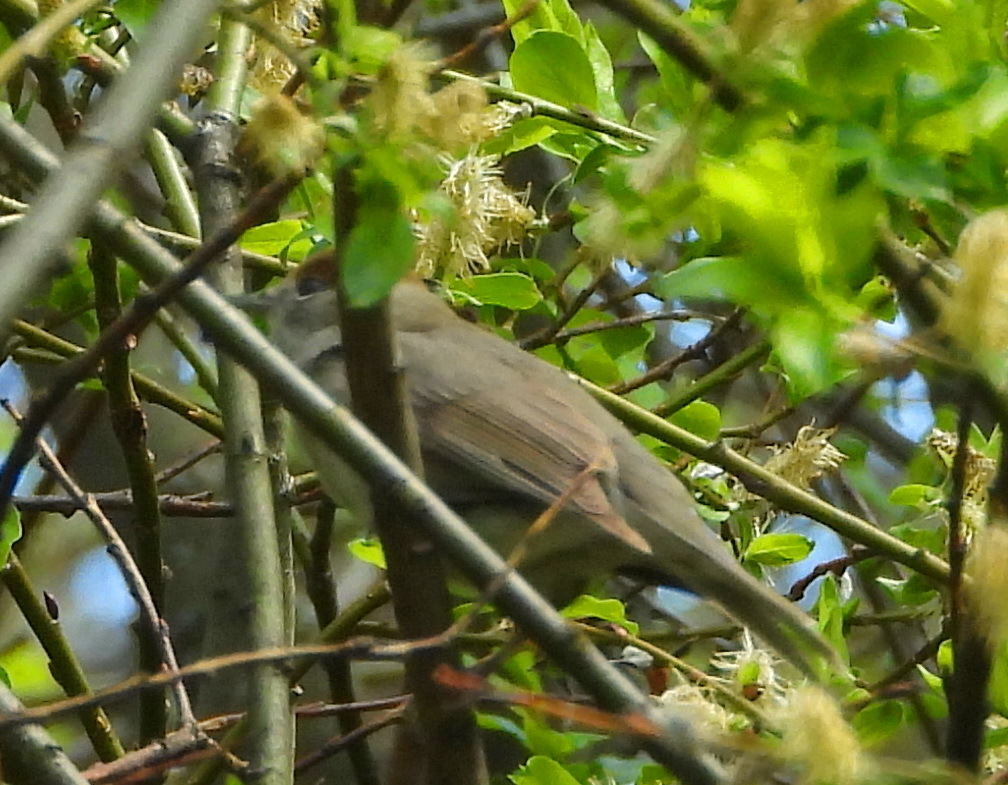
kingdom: Animalia
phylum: Chordata
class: Aves
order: Passeriformes
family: Sylviidae
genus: Sylvia
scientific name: Sylvia atricapilla
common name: Eurasian blackcap
